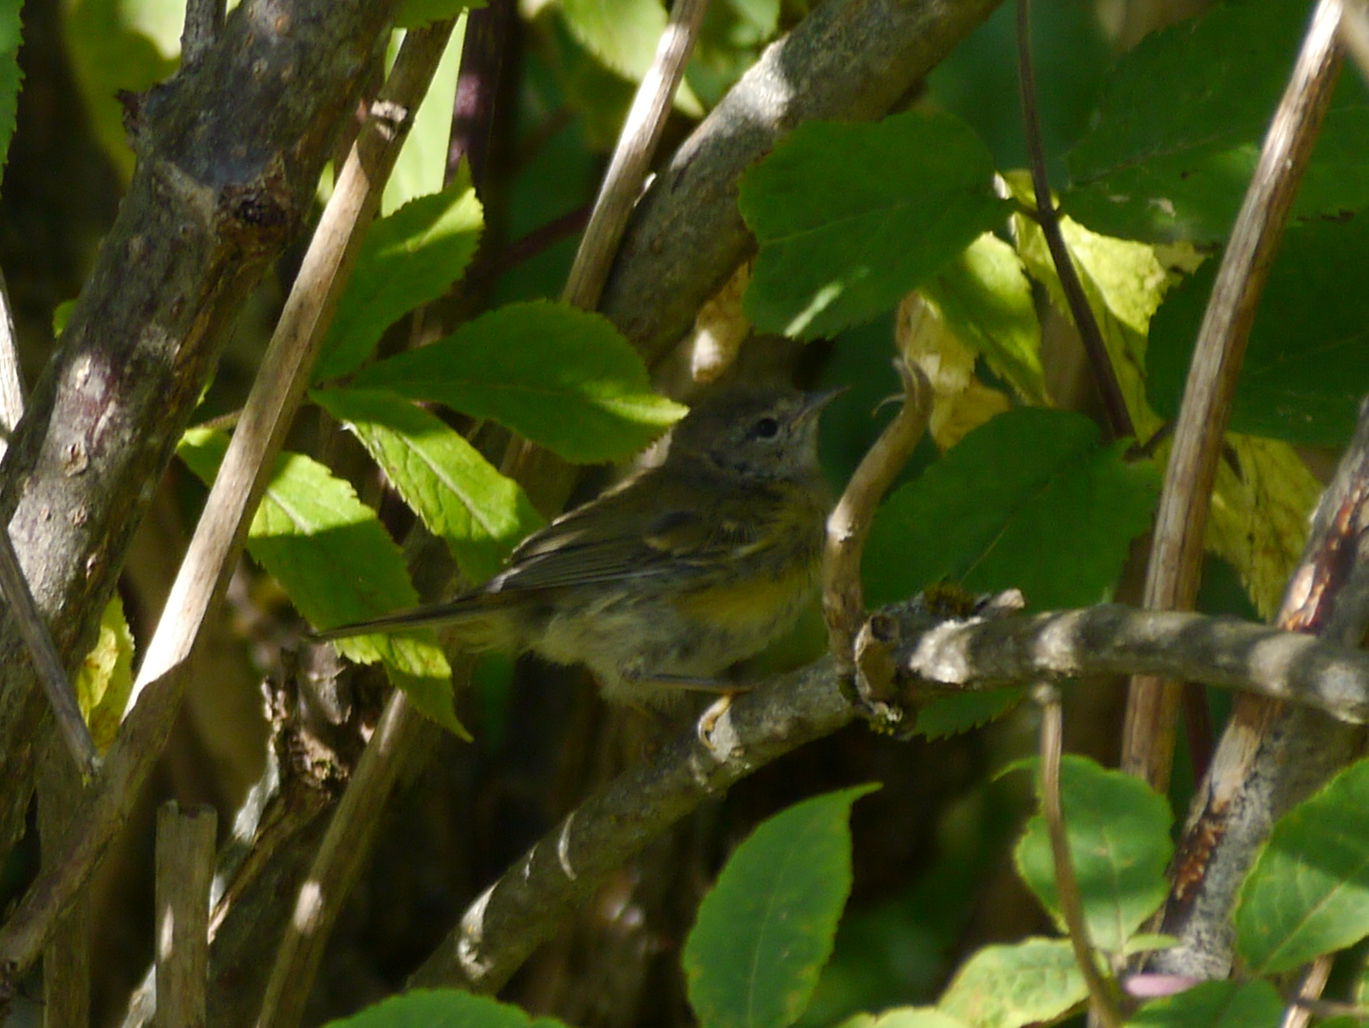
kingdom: Animalia
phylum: Chordata
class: Aves
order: Passeriformes
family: Parulidae
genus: Leiothlypis
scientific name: Leiothlypis celata
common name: Orange-crowned warbler
